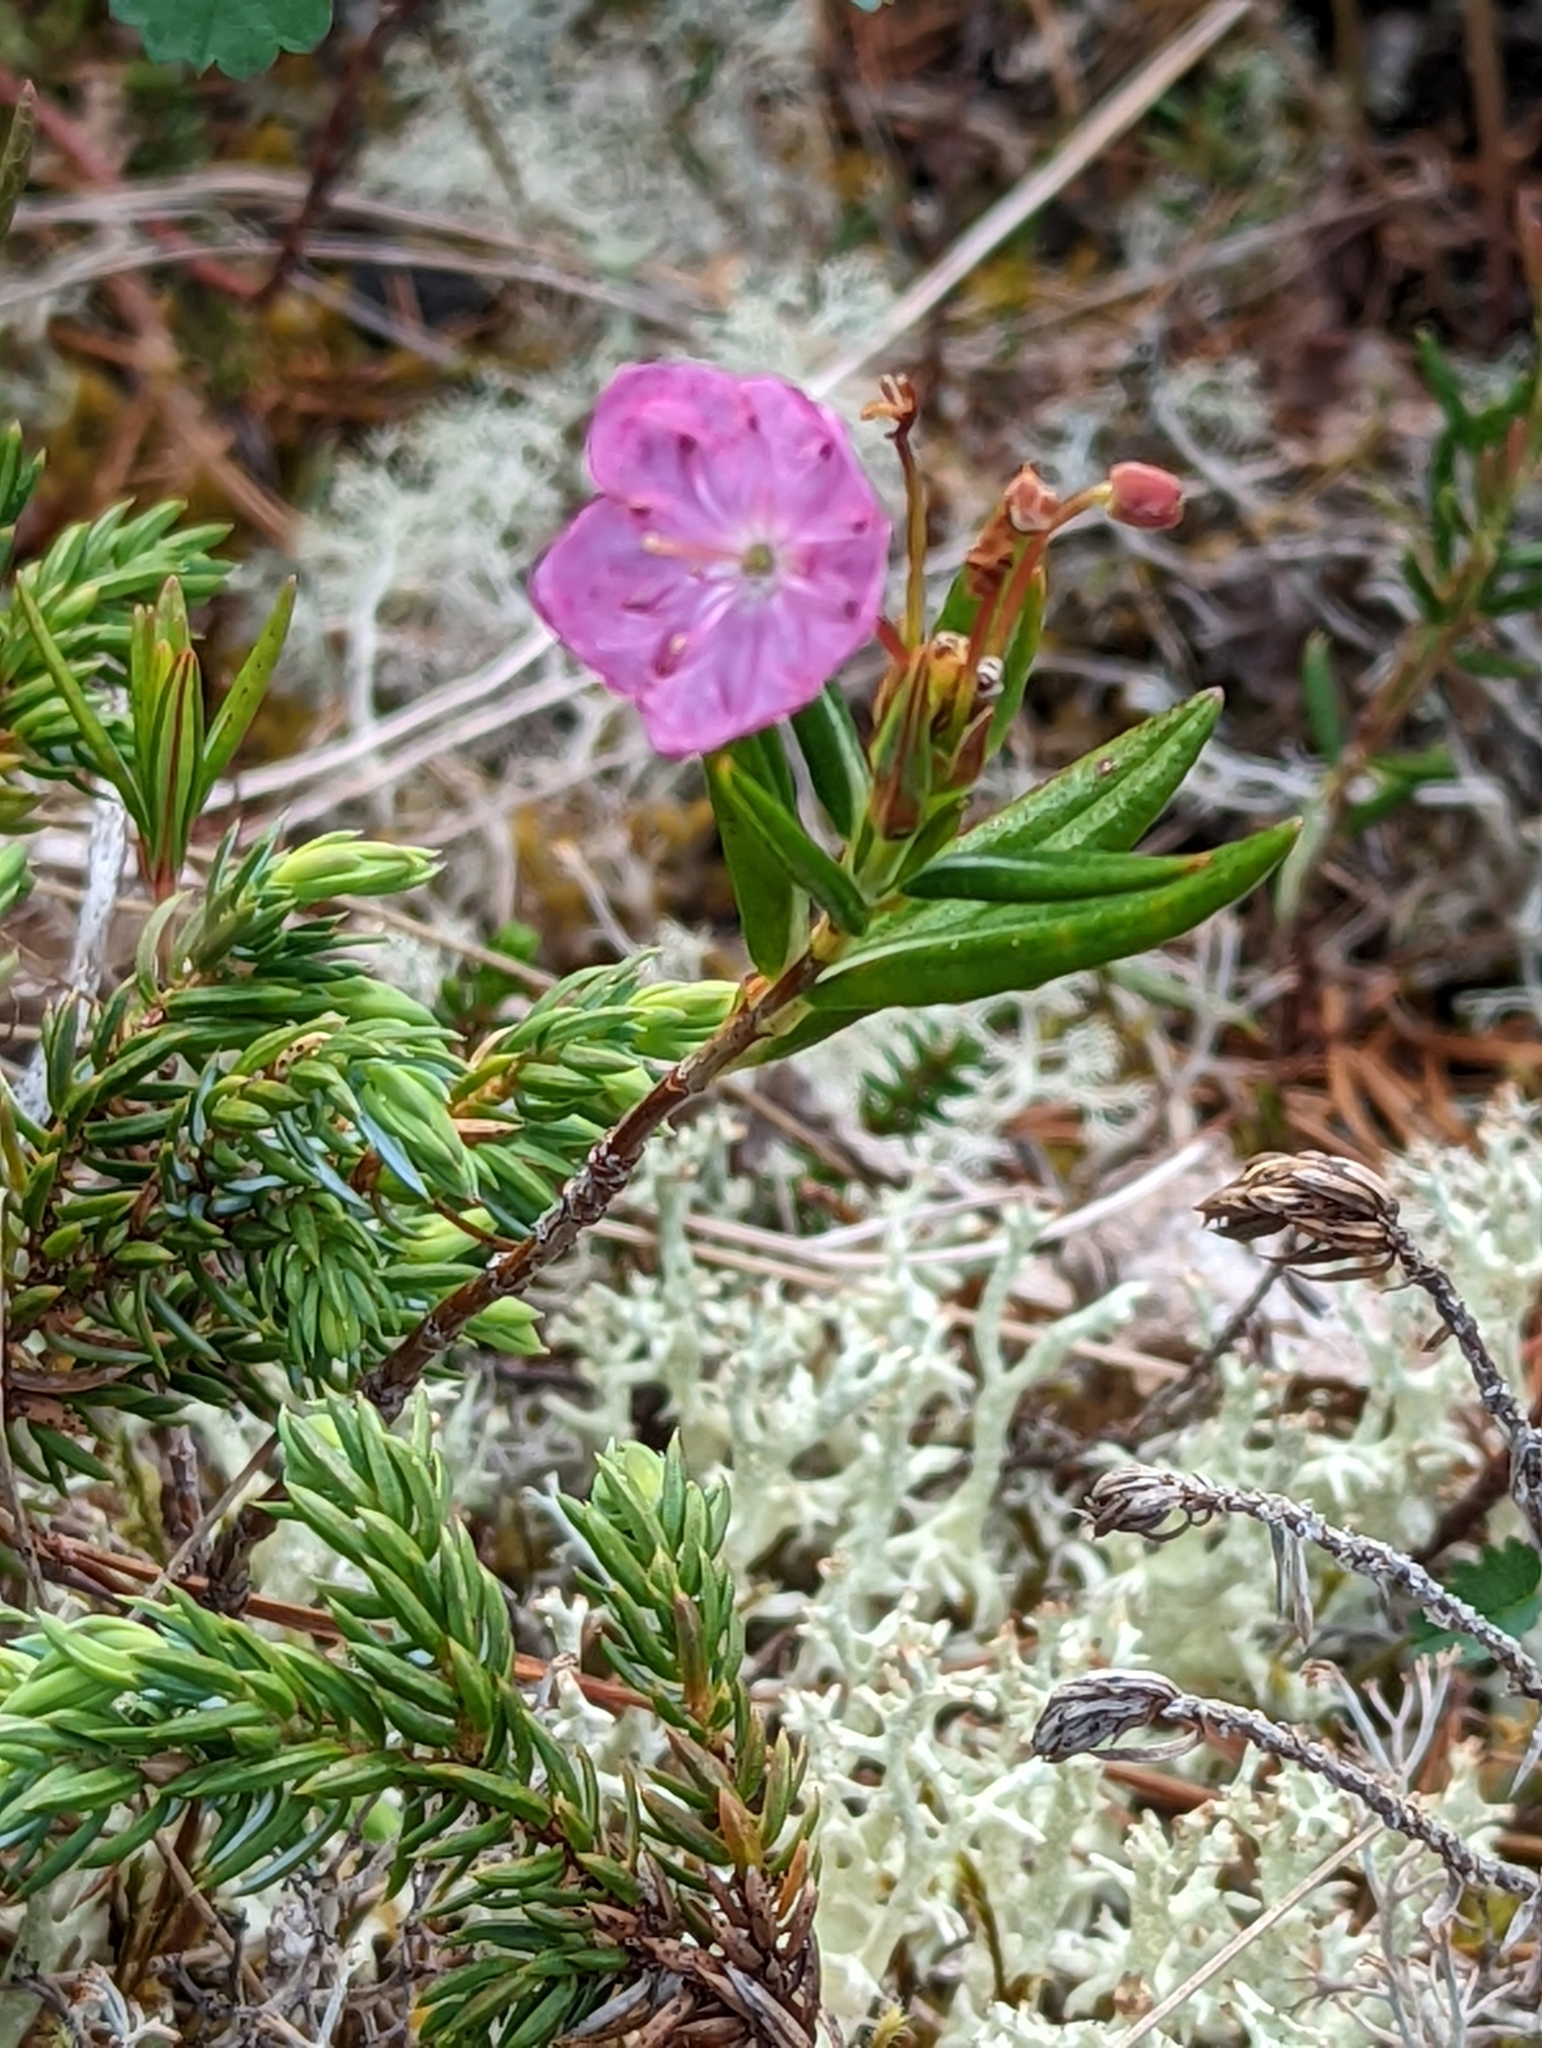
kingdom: Plantae
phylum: Tracheophyta
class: Magnoliopsida
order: Ericales
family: Ericaceae
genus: Kalmia
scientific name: Kalmia microphylla
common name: Alpine bog laurel
